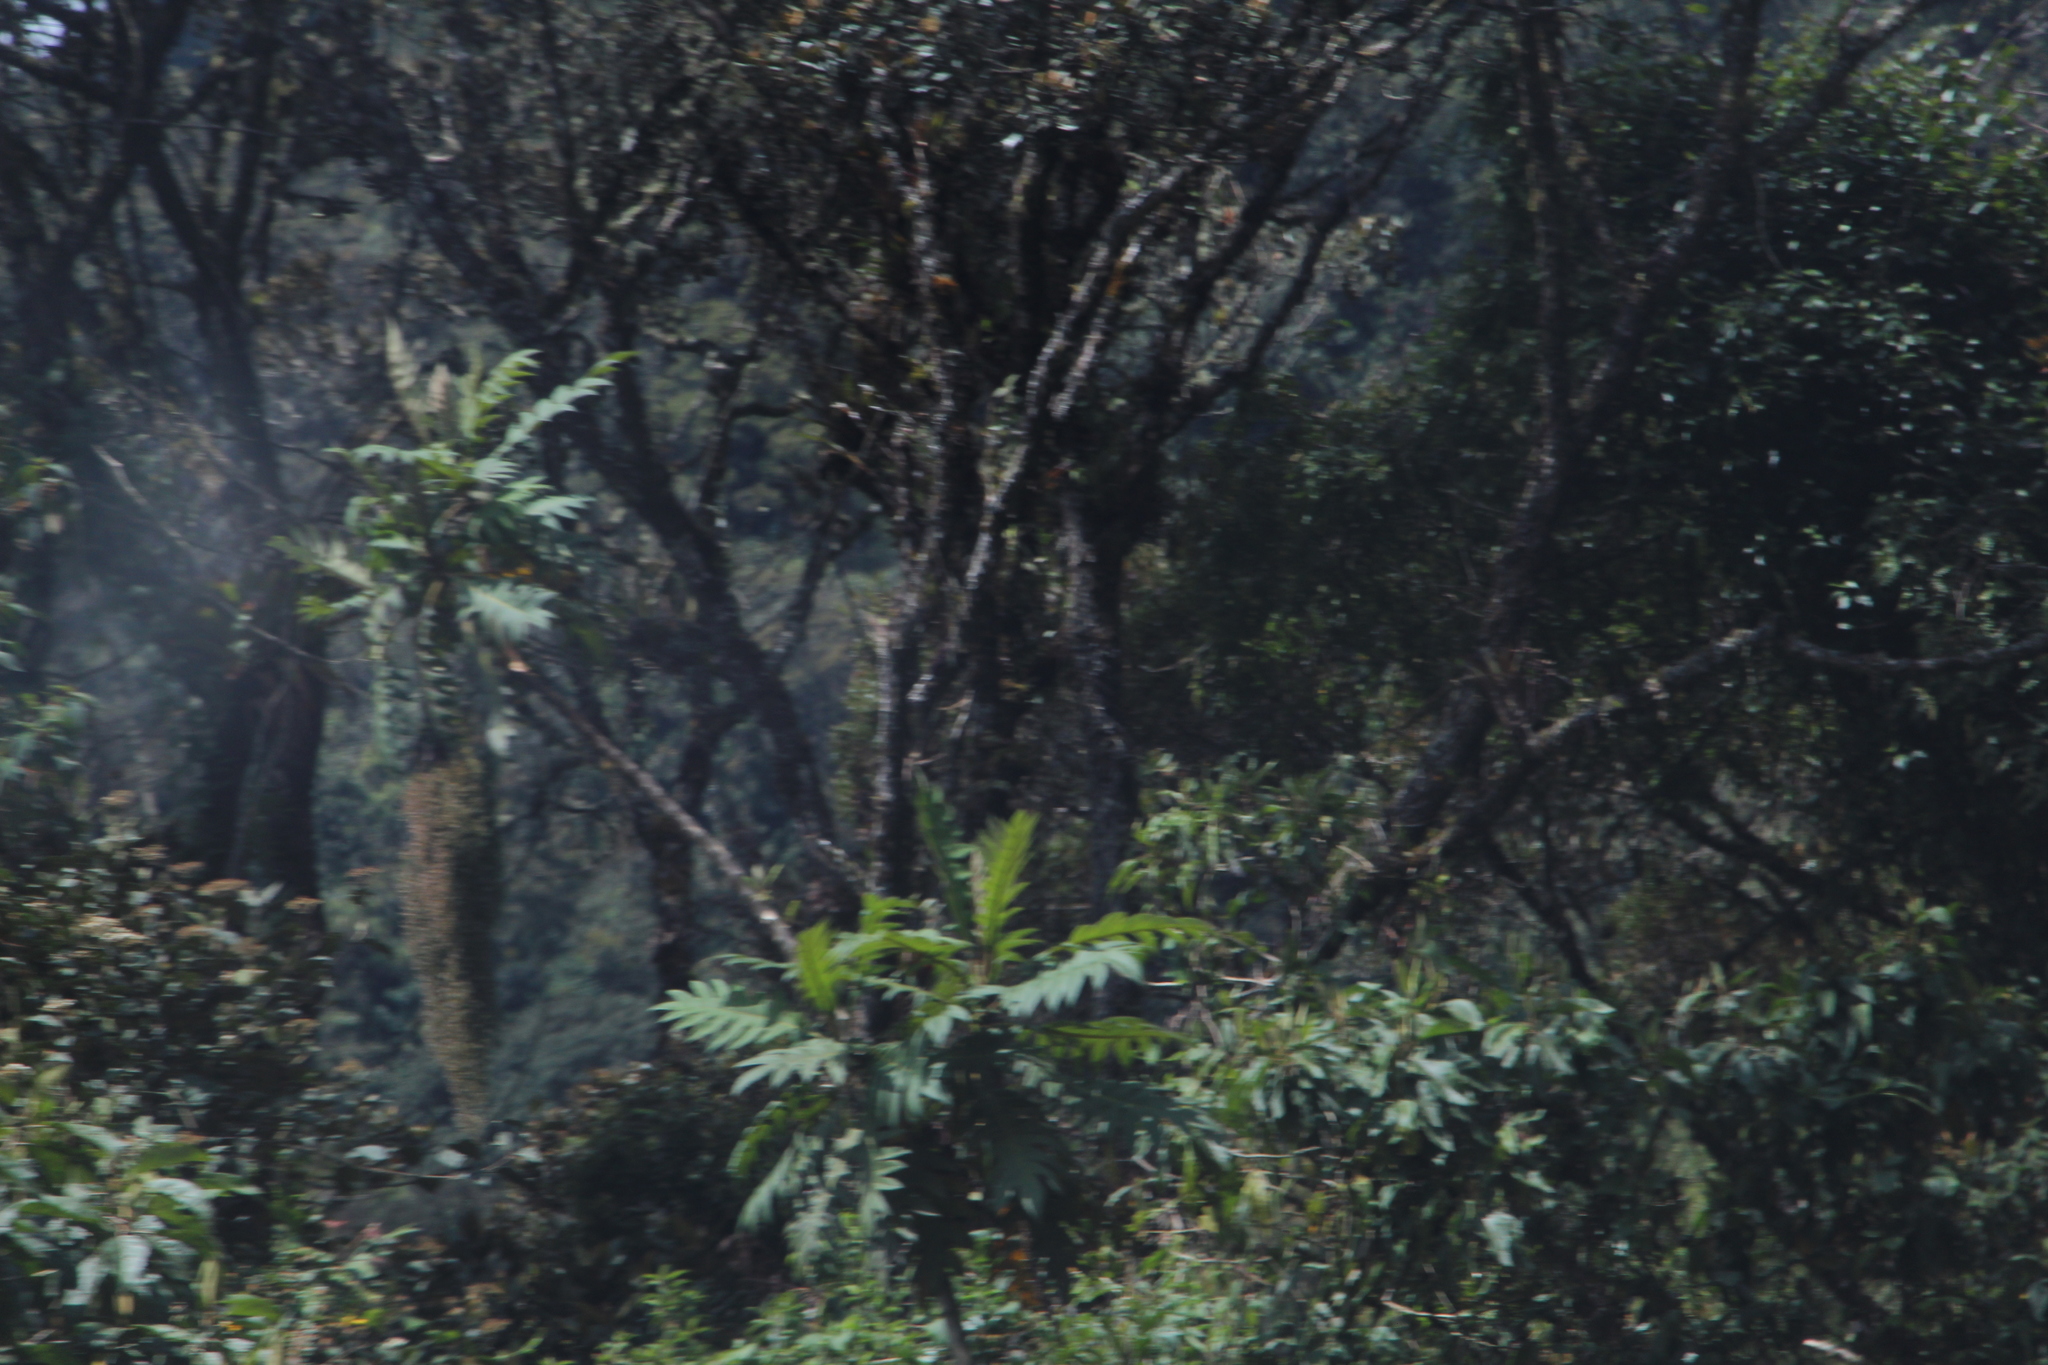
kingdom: Plantae
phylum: Tracheophyta
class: Magnoliopsida
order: Ranunculales
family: Papaveraceae
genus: Bocconia
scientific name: Bocconia frutescens
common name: Tree poppy
